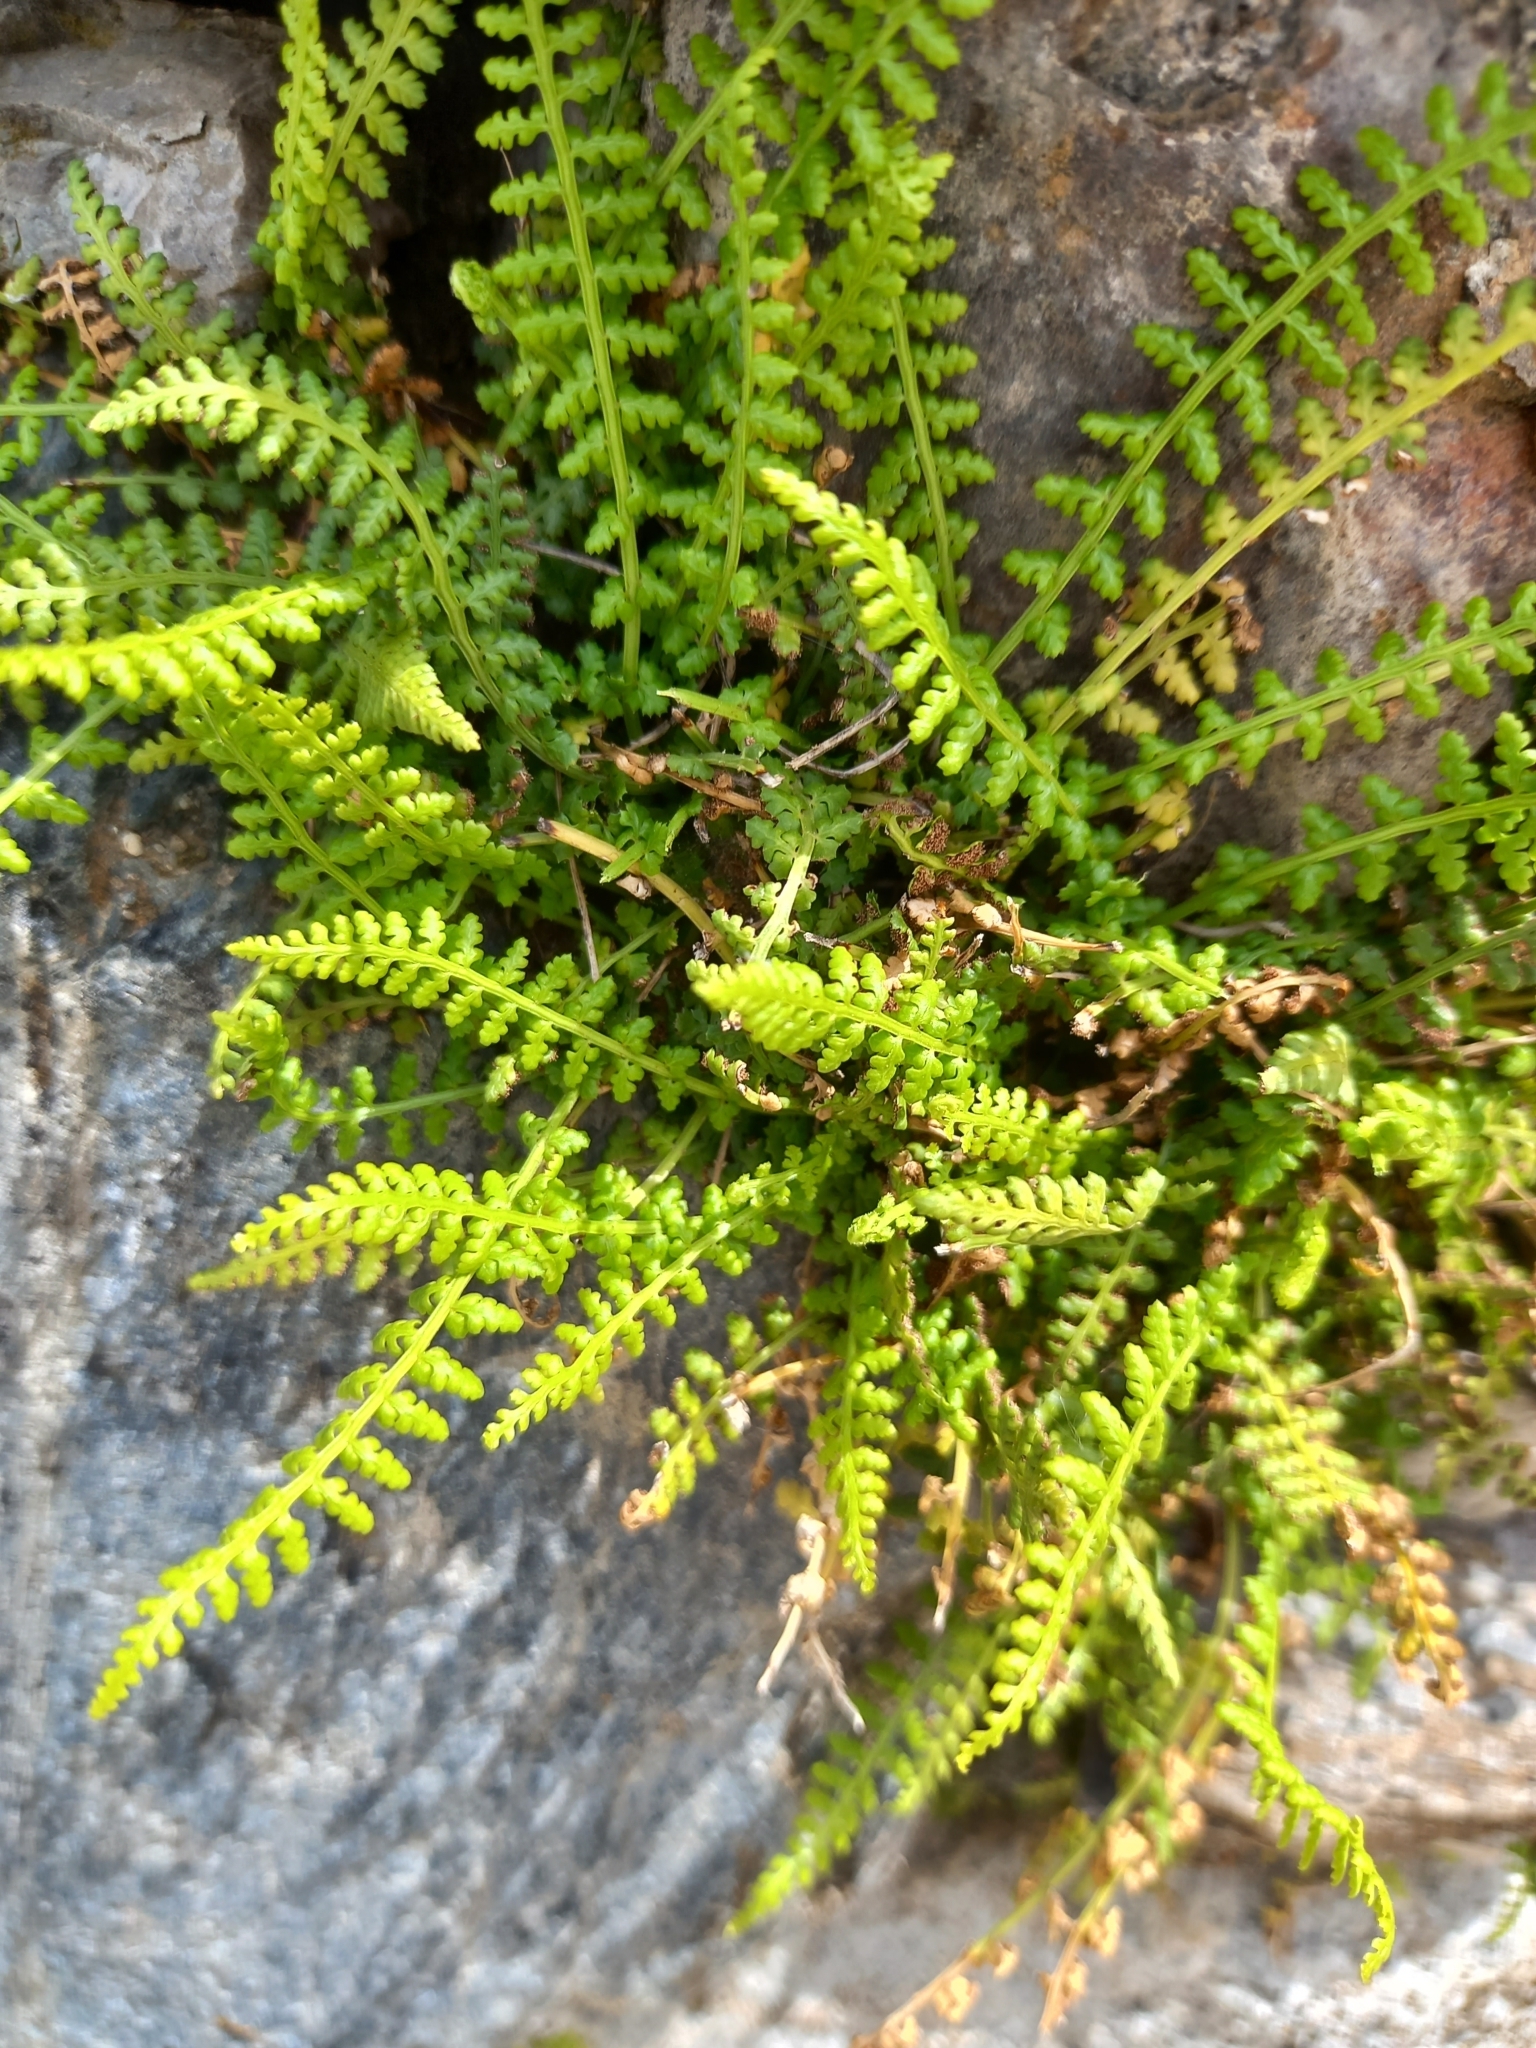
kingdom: Plantae
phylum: Tracheophyta
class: Polypodiopsida
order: Polypodiales
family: Aspleniaceae
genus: Asplenium
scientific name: Asplenium fontanum
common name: Fountain spleenwort
